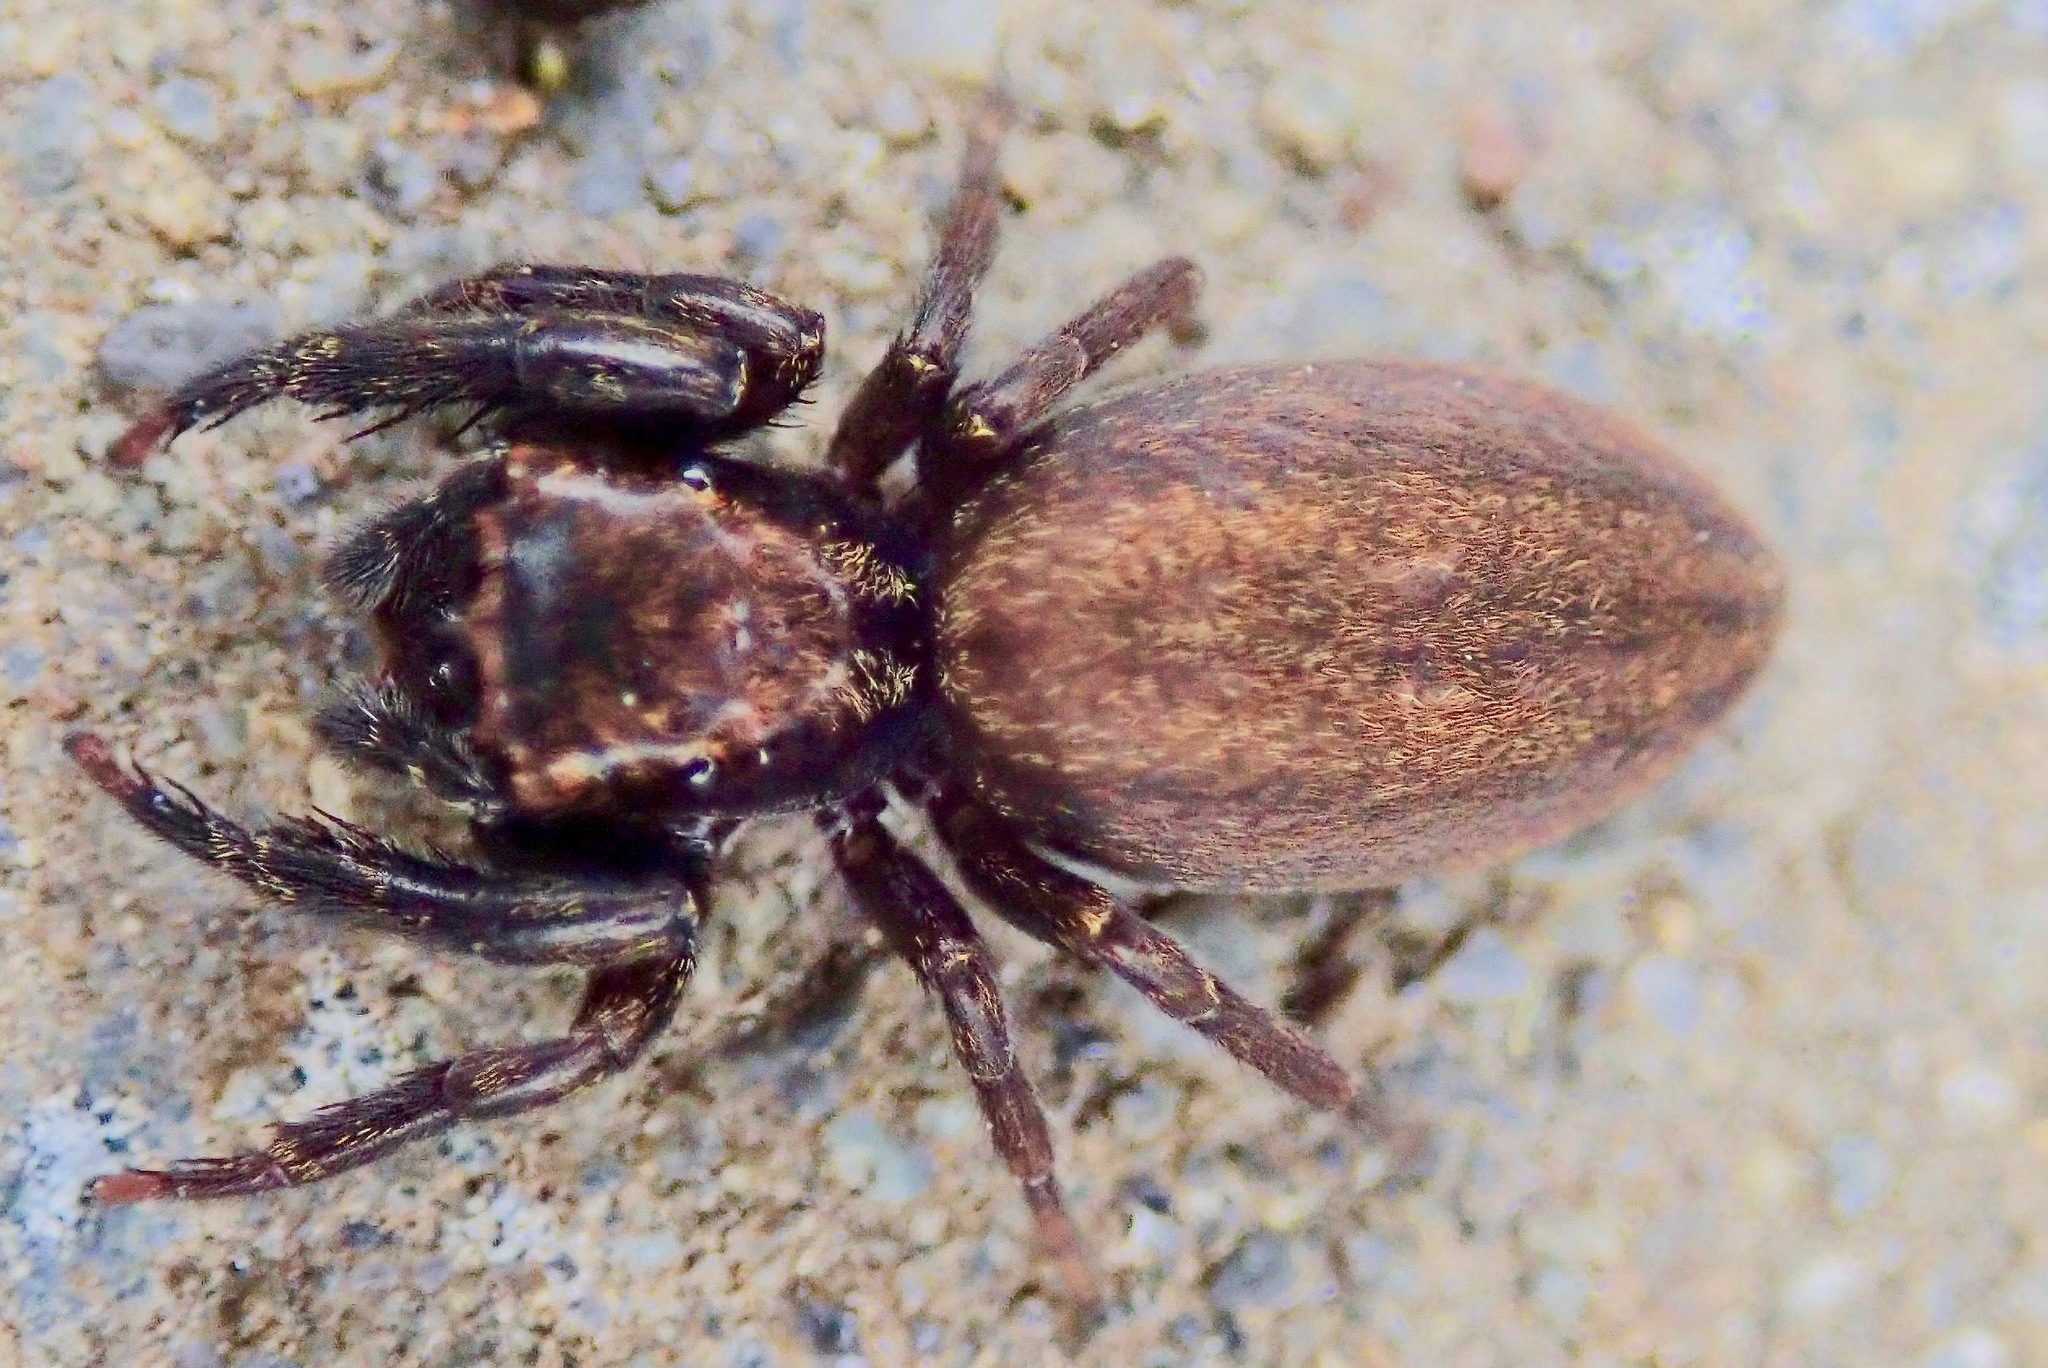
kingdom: Animalia
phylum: Arthropoda
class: Arachnida
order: Araneae
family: Salticidae
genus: Trite
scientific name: Trite auricoma
